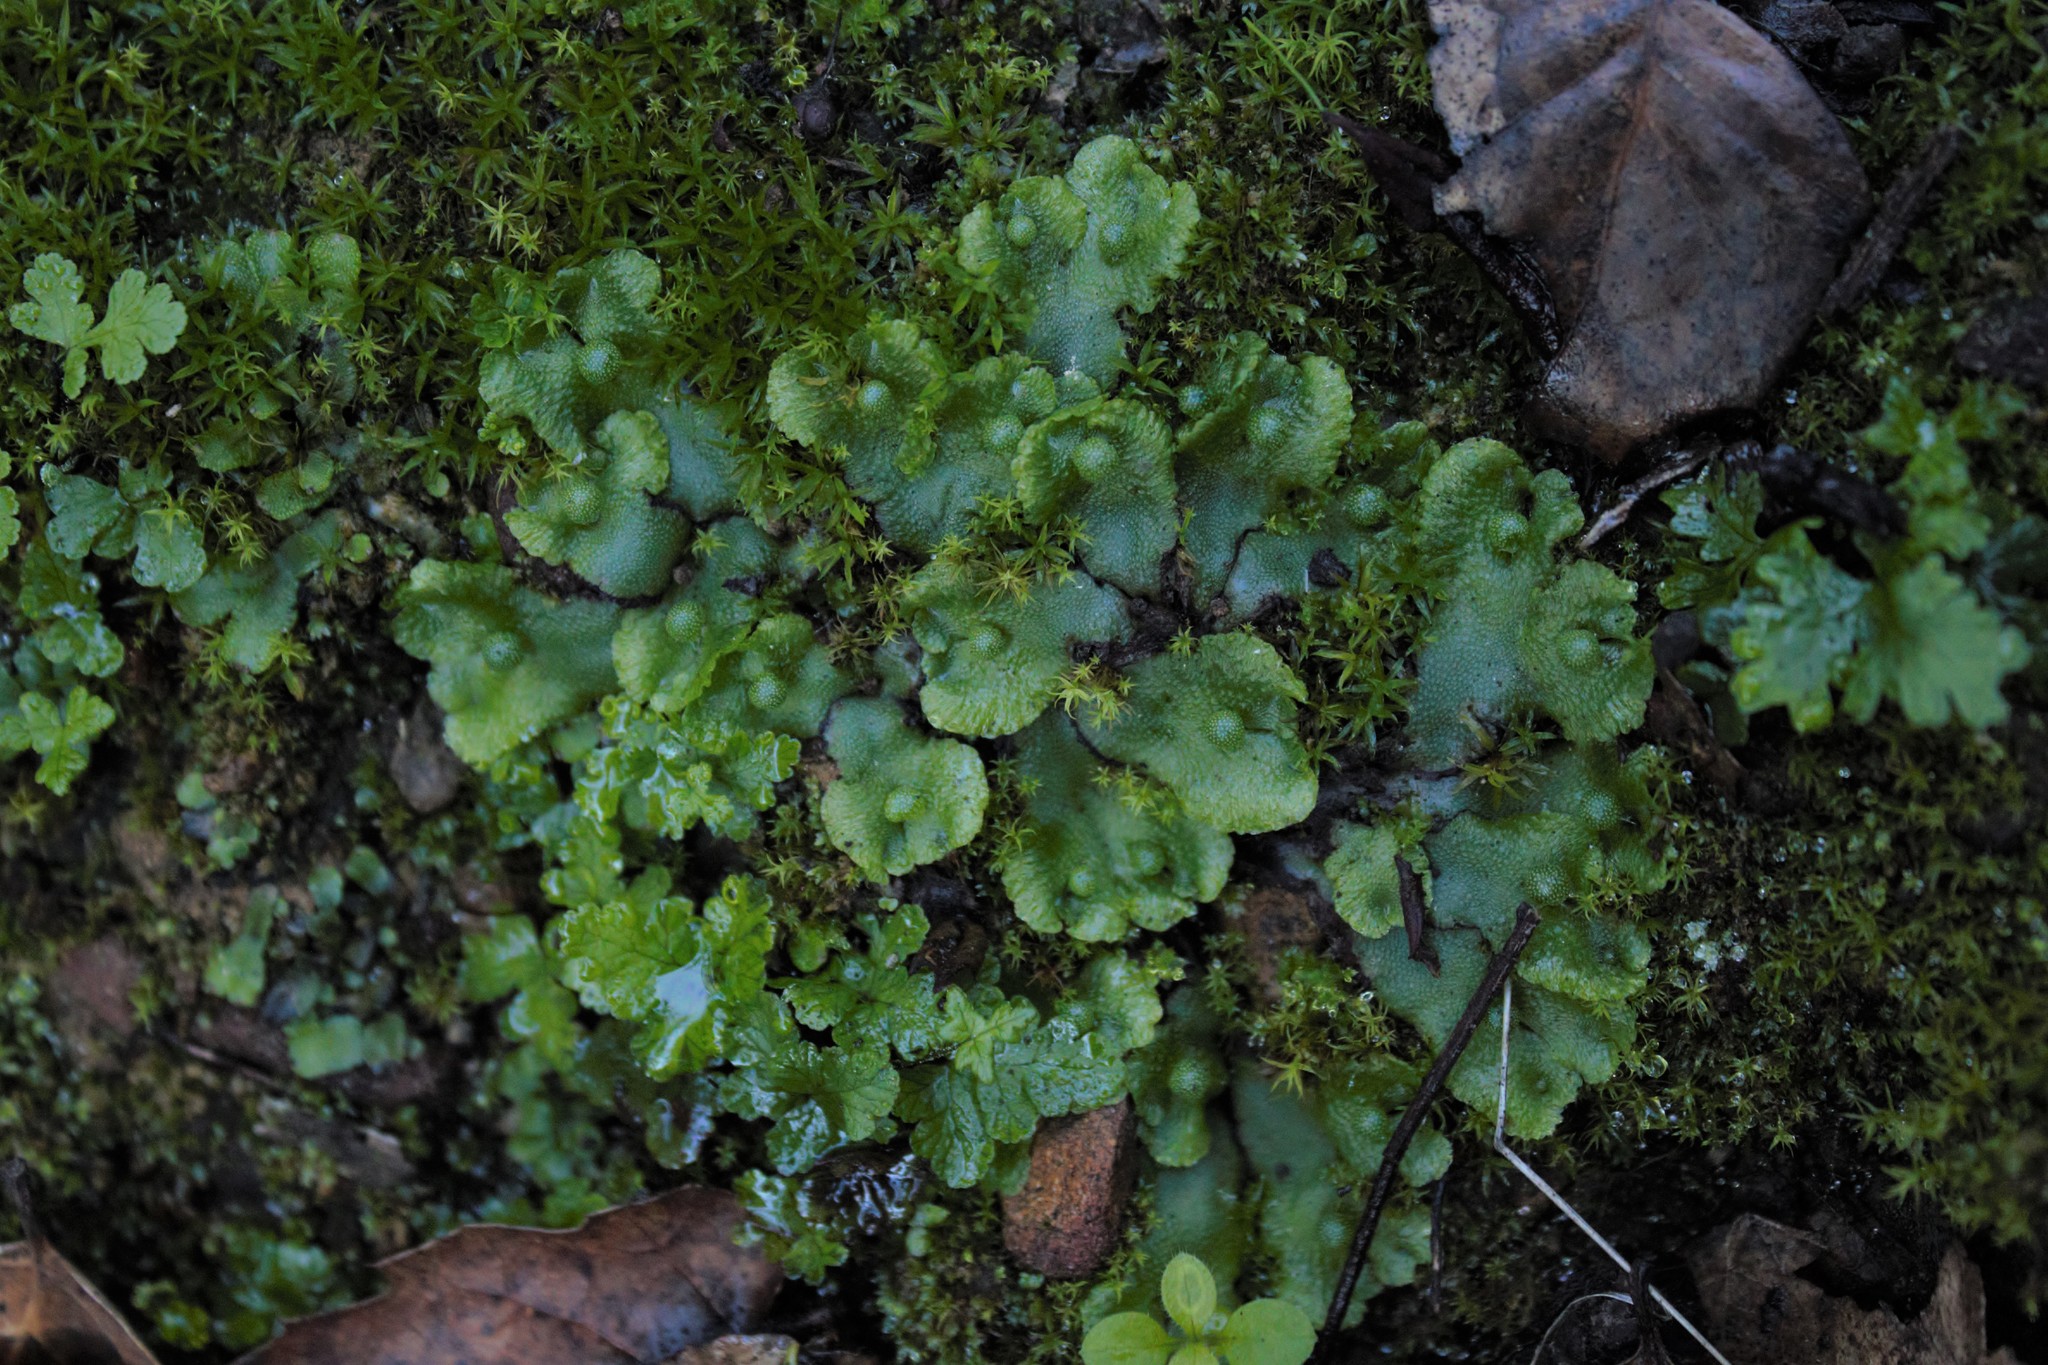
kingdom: Plantae
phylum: Marchantiophyta
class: Marchantiopsida
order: Marchantiales
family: Aytoniaceae
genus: Asterella
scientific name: Asterella californica
